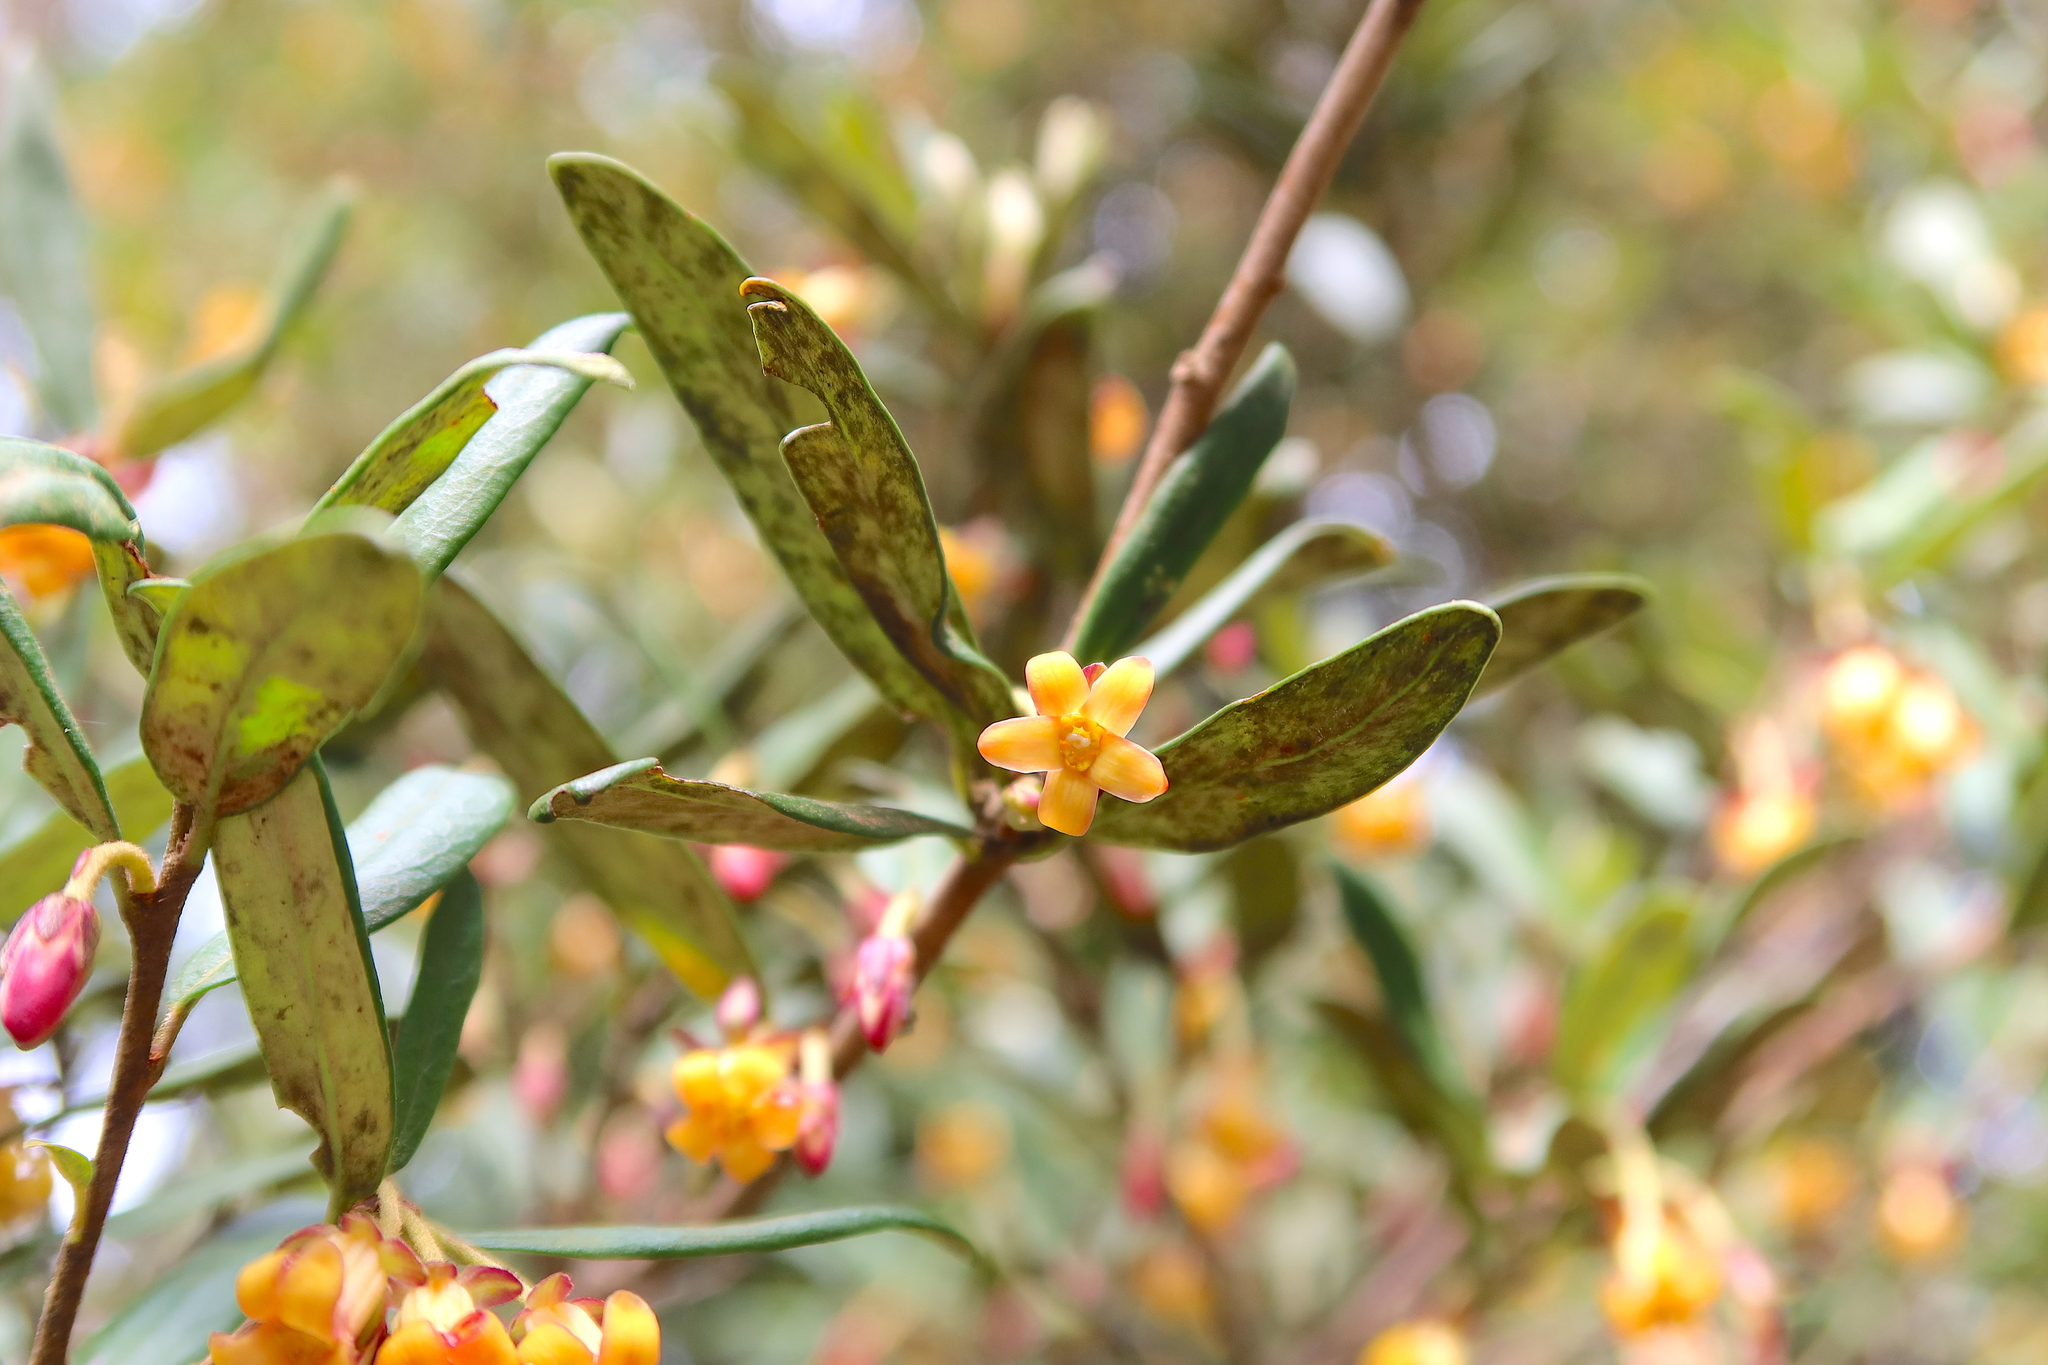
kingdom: Plantae
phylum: Tracheophyta
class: Magnoliopsida
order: Apiales
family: Pittosporaceae
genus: Pittosporum
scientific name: Pittosporum bicolor
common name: Tallowwood
